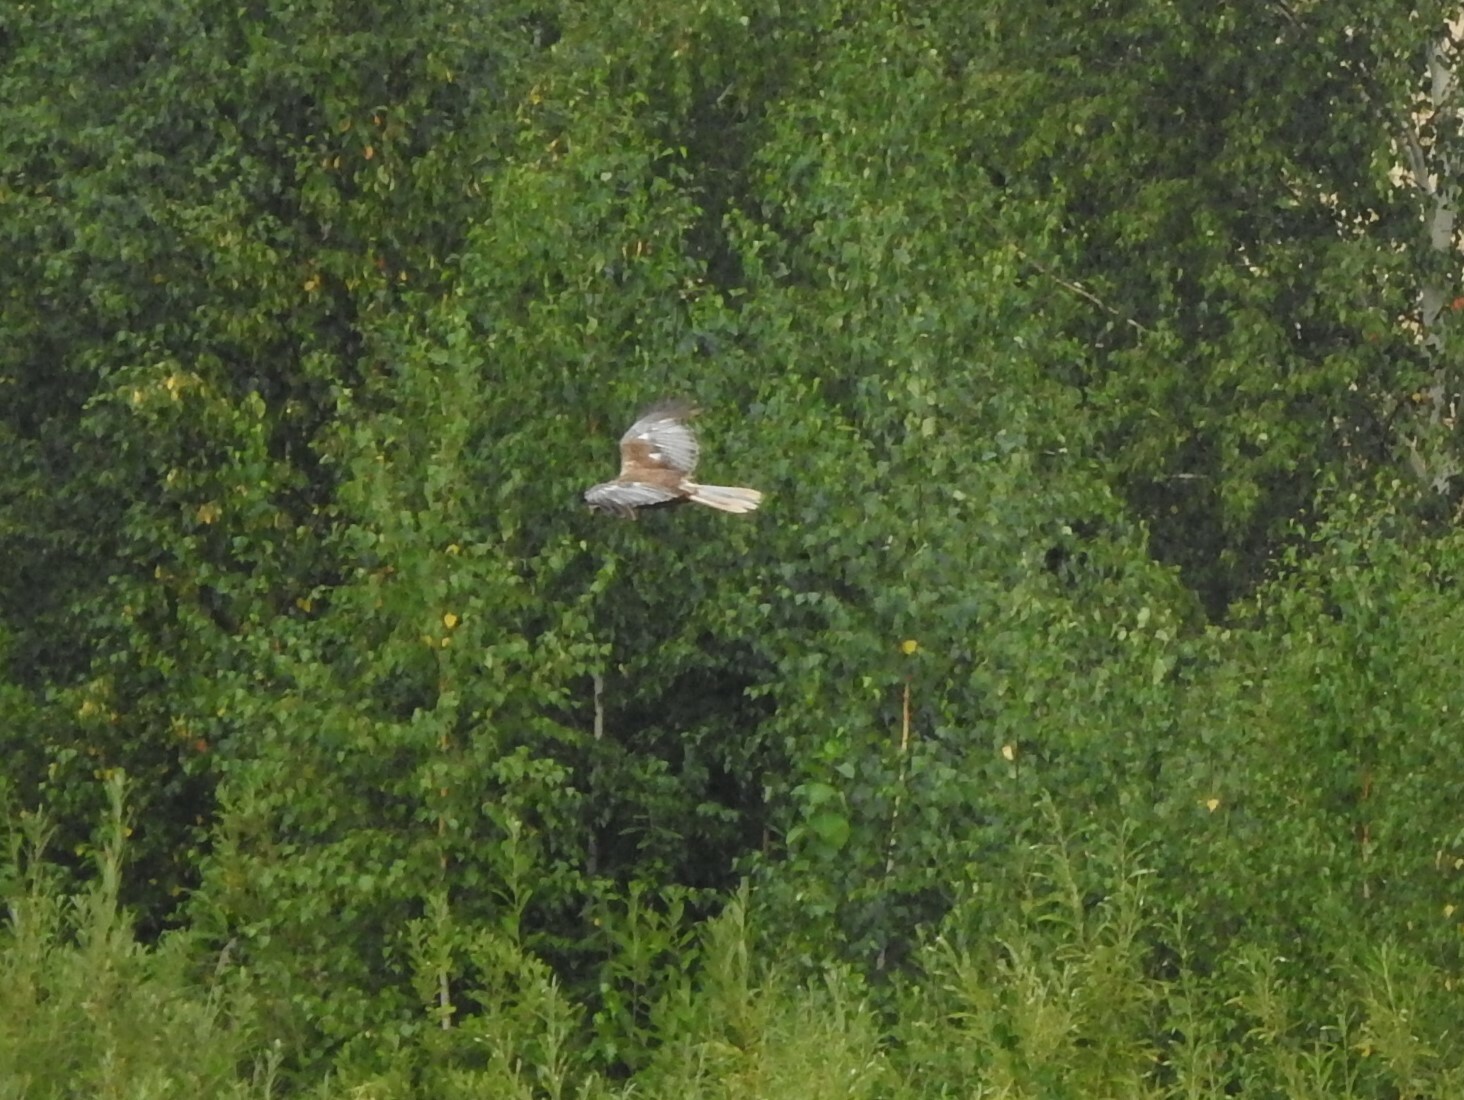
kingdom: Animalia
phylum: Chordata
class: Aves
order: Accipitriformes
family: Accipitridae
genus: Circus
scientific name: Circus aeruginosus
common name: Western marsh harrier
